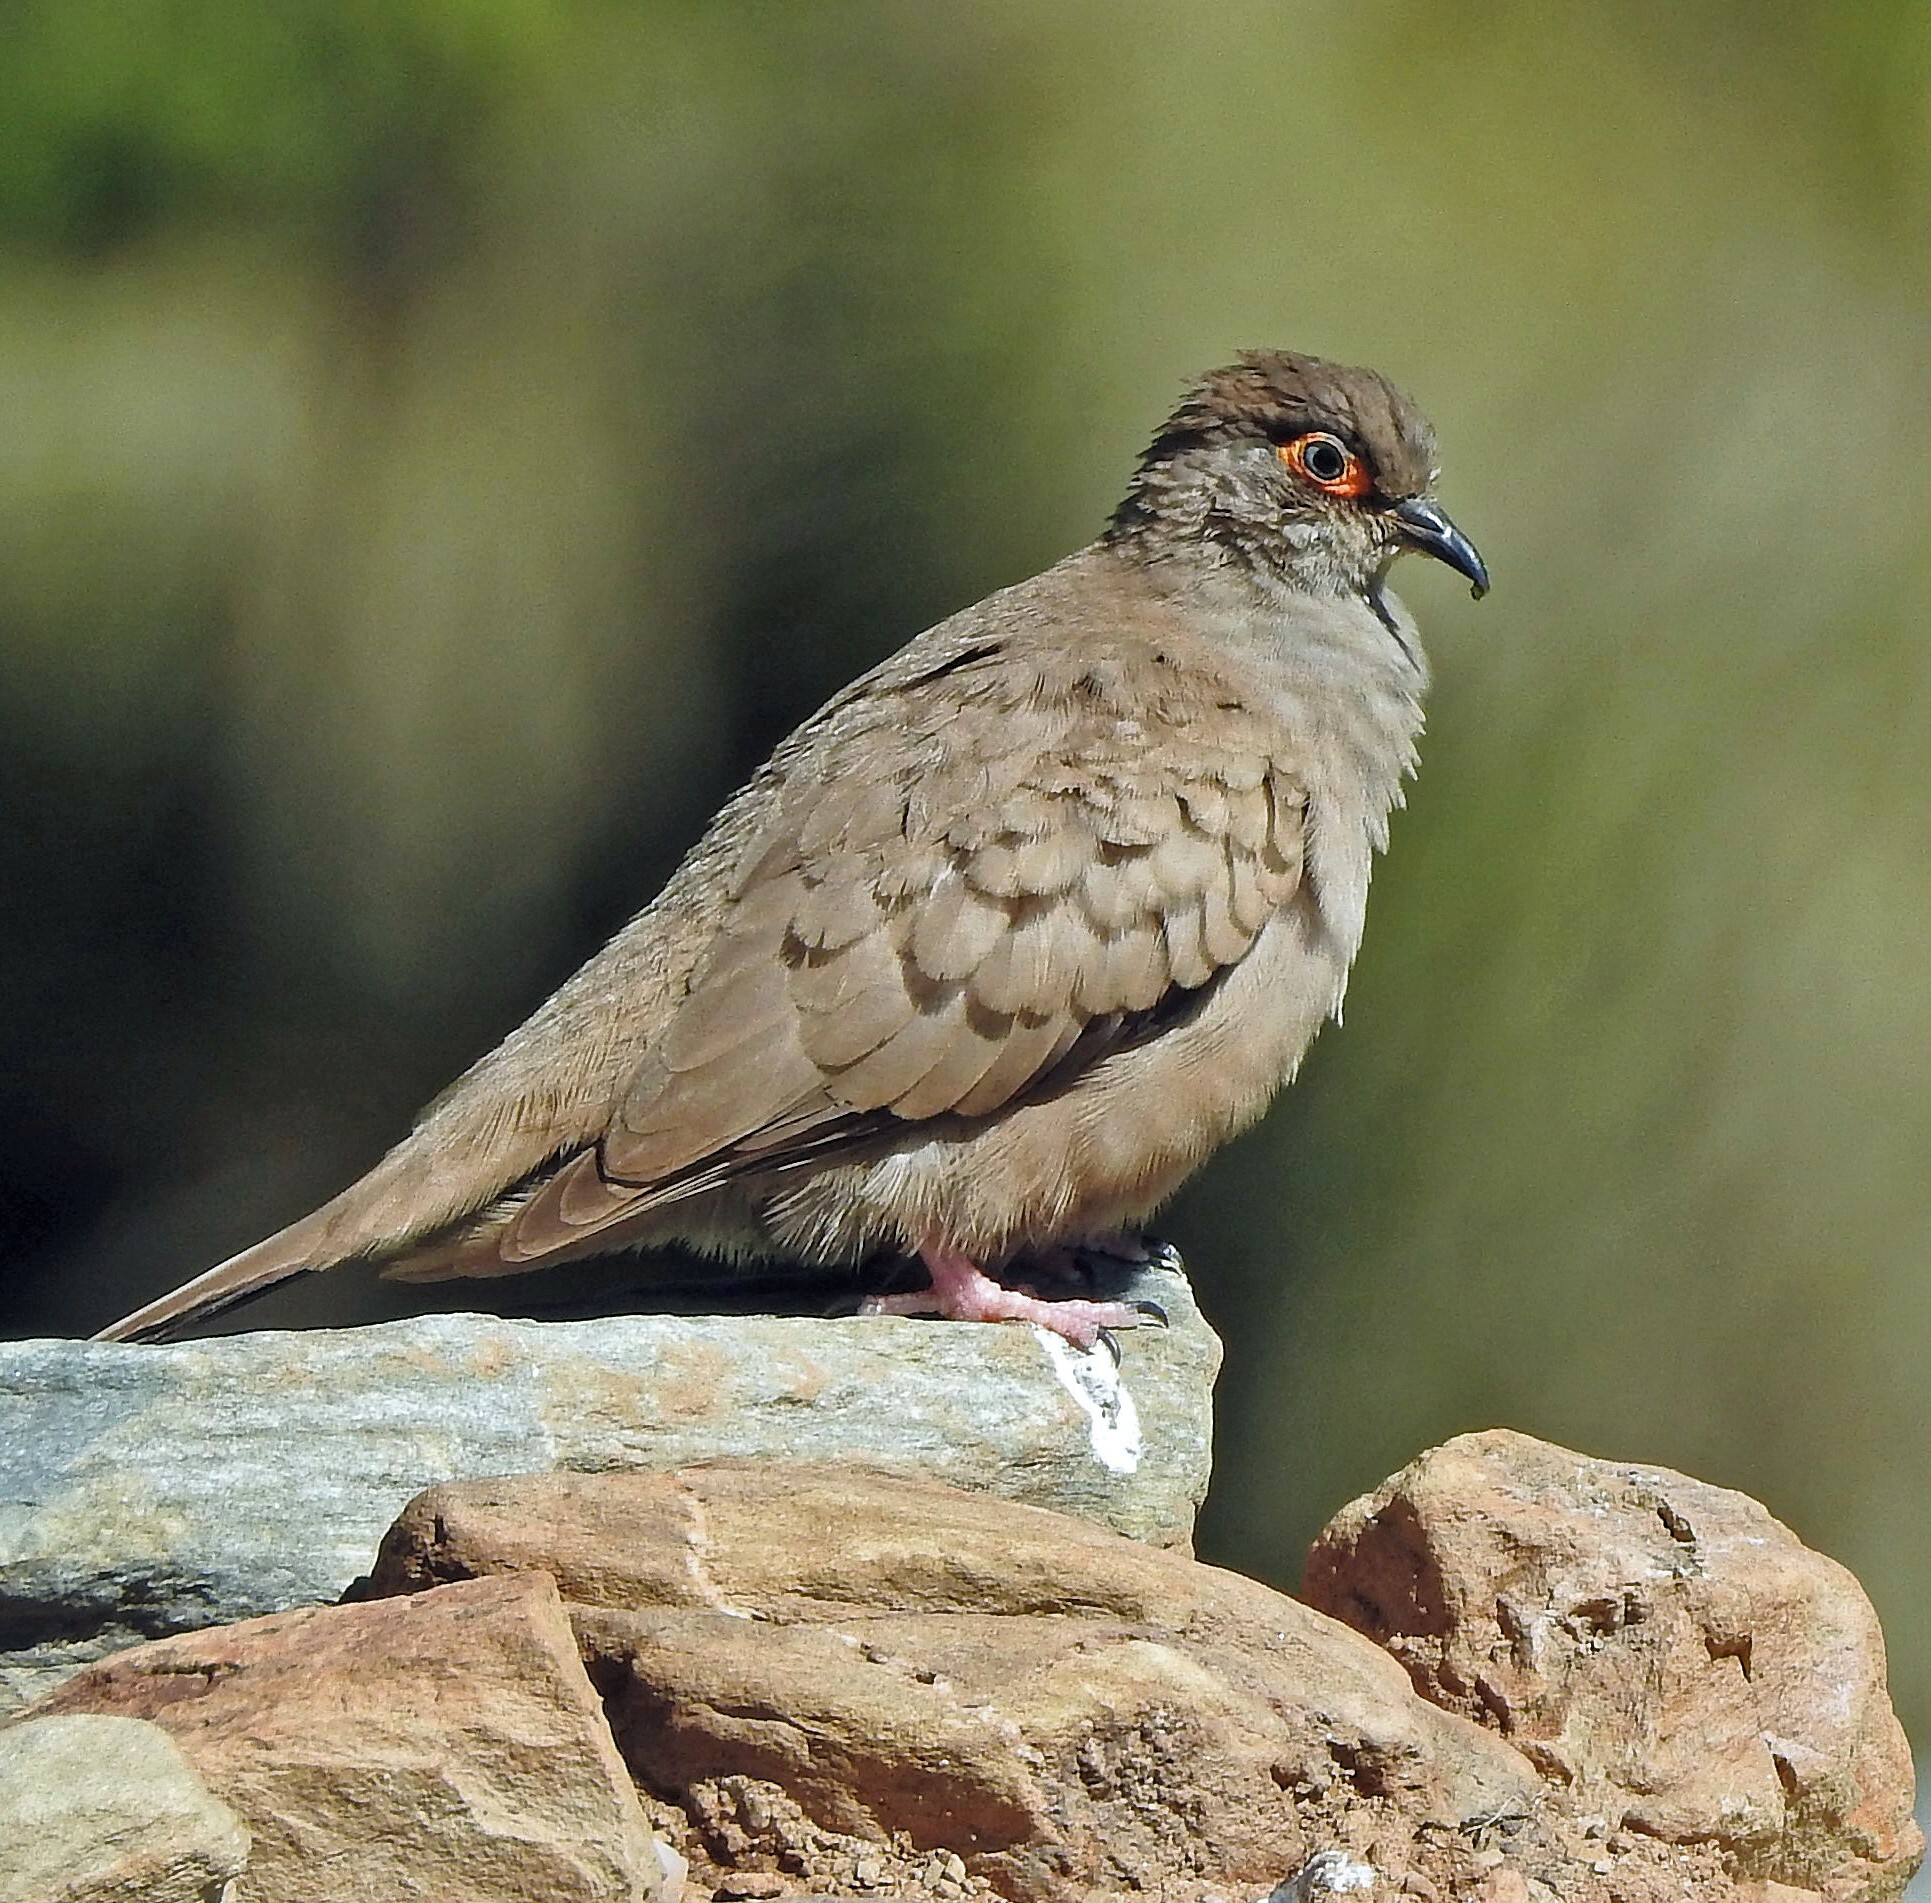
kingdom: Animalia
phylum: Chordata
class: Aves
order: Columbiformes
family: Columbidae
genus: Metriopelia
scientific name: Metriopelia morenoi
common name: Moreno's ground dove
